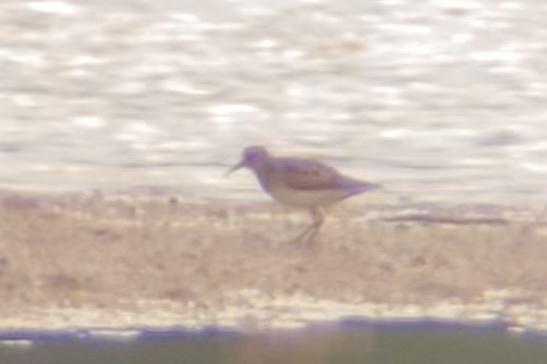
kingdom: Animalia
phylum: Chordata
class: Aves
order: Charadriiformes
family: Scolopacidae
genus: Calidris
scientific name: Calidris minutilla
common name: Least sandpiper
